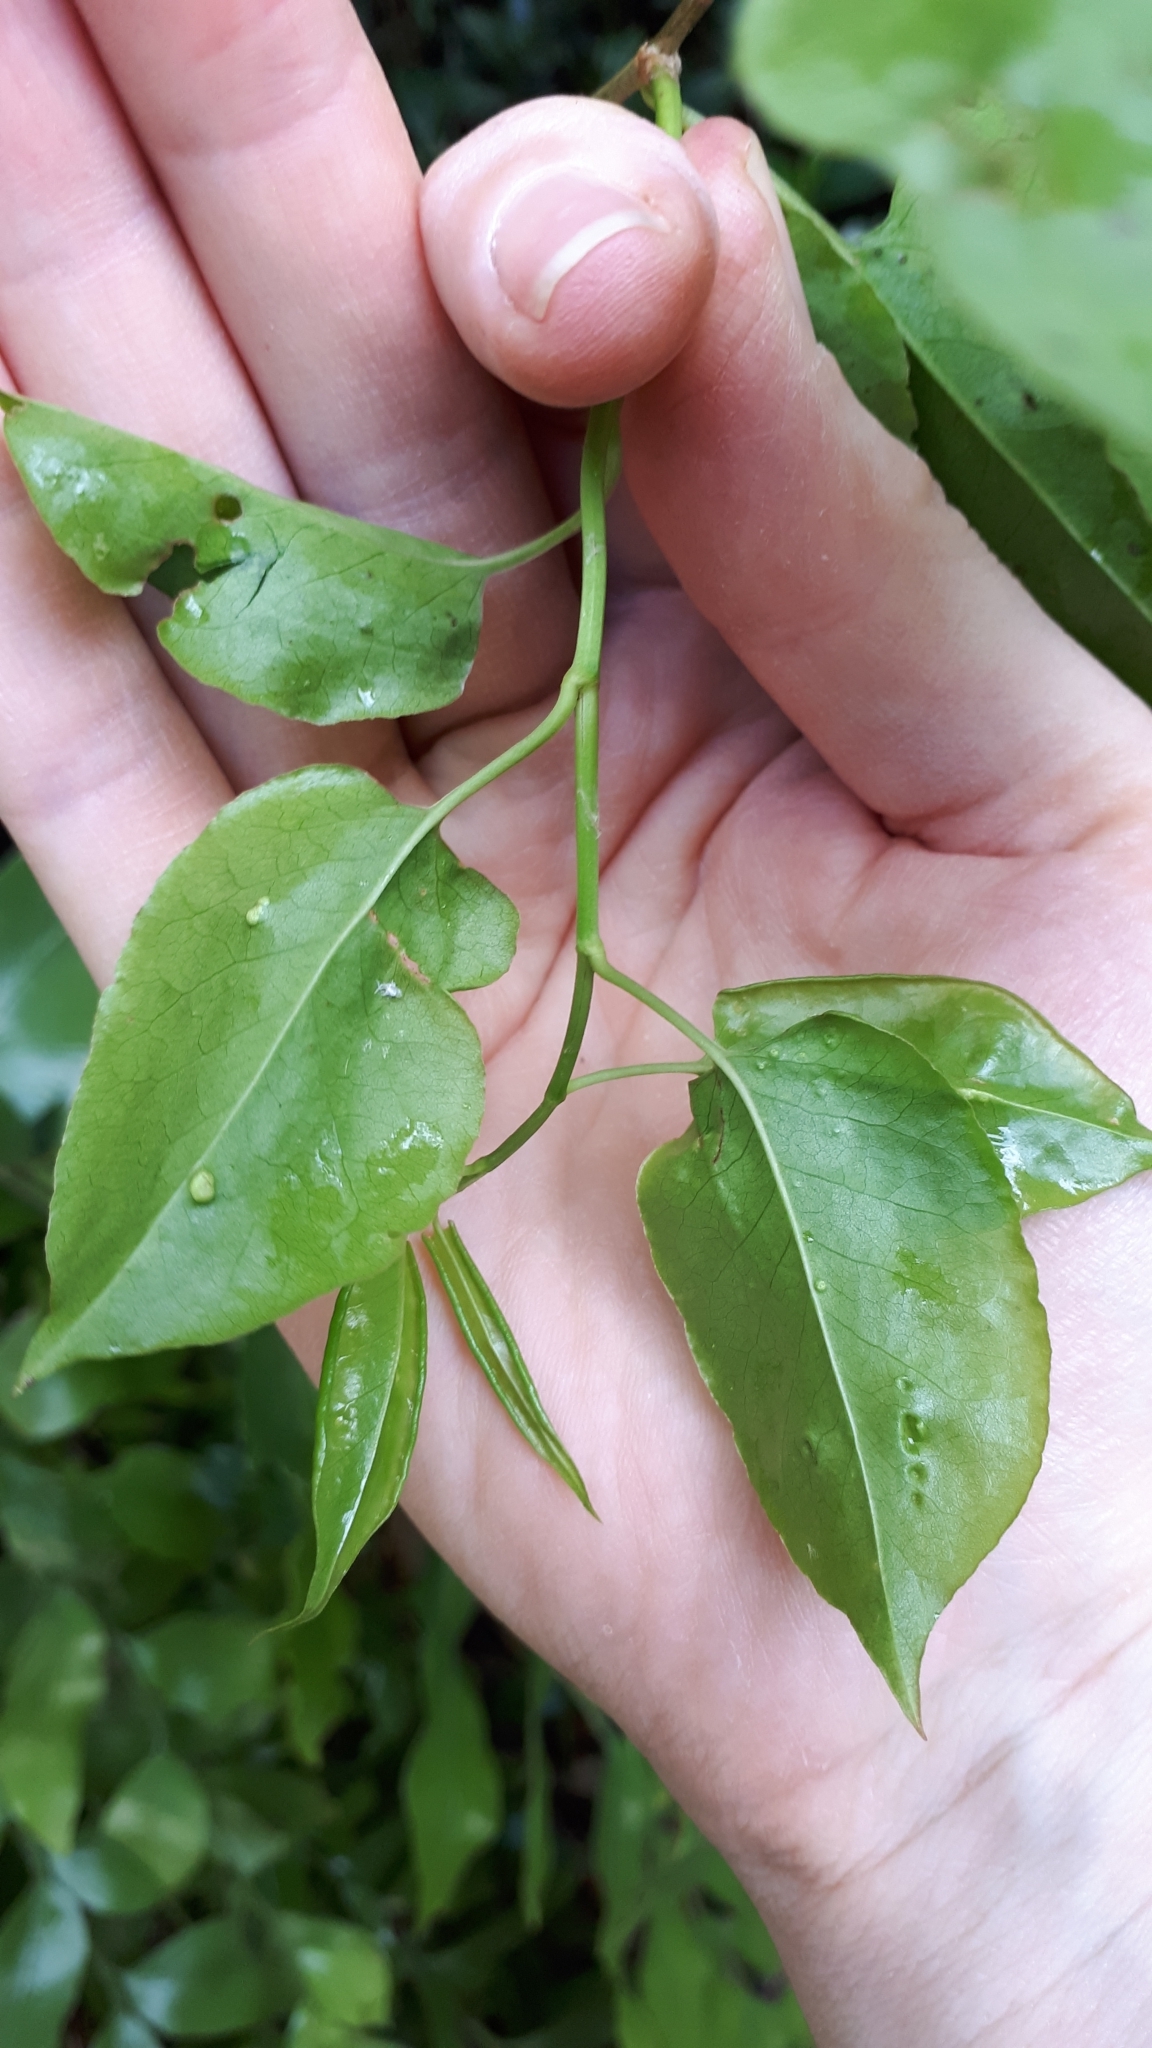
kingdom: Plantae
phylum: Tracheophyta
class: Magnoliopsida
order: Caryophyllales
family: Polygonaceae
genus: Muehlenbeckia
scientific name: Muehlenbeckia australis
